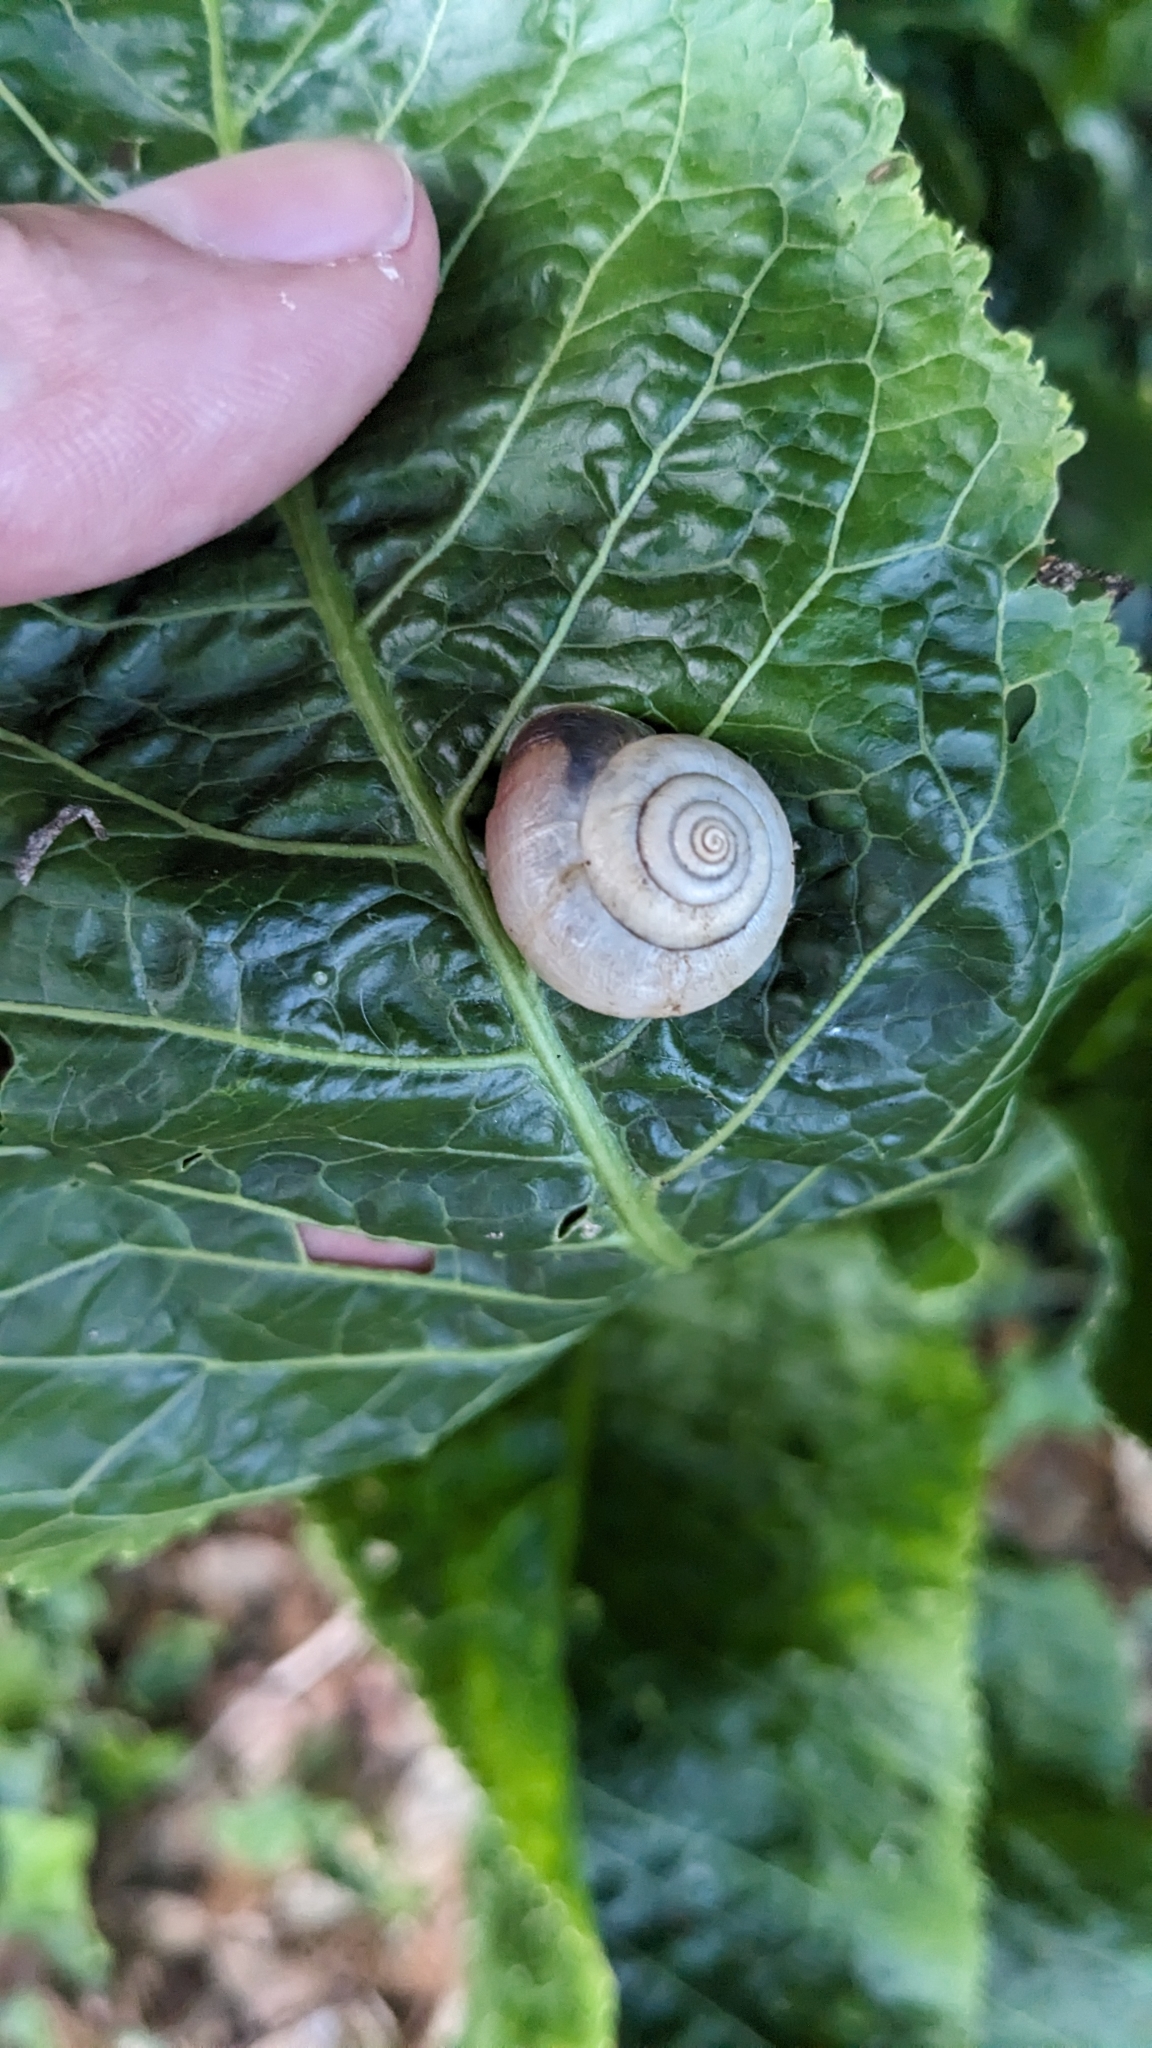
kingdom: Animalia
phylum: Mollusca
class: Gastropoda
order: Stylommatophora
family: Hygromiidae
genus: Monacha
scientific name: Monacha cantiana
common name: Kentish snail
